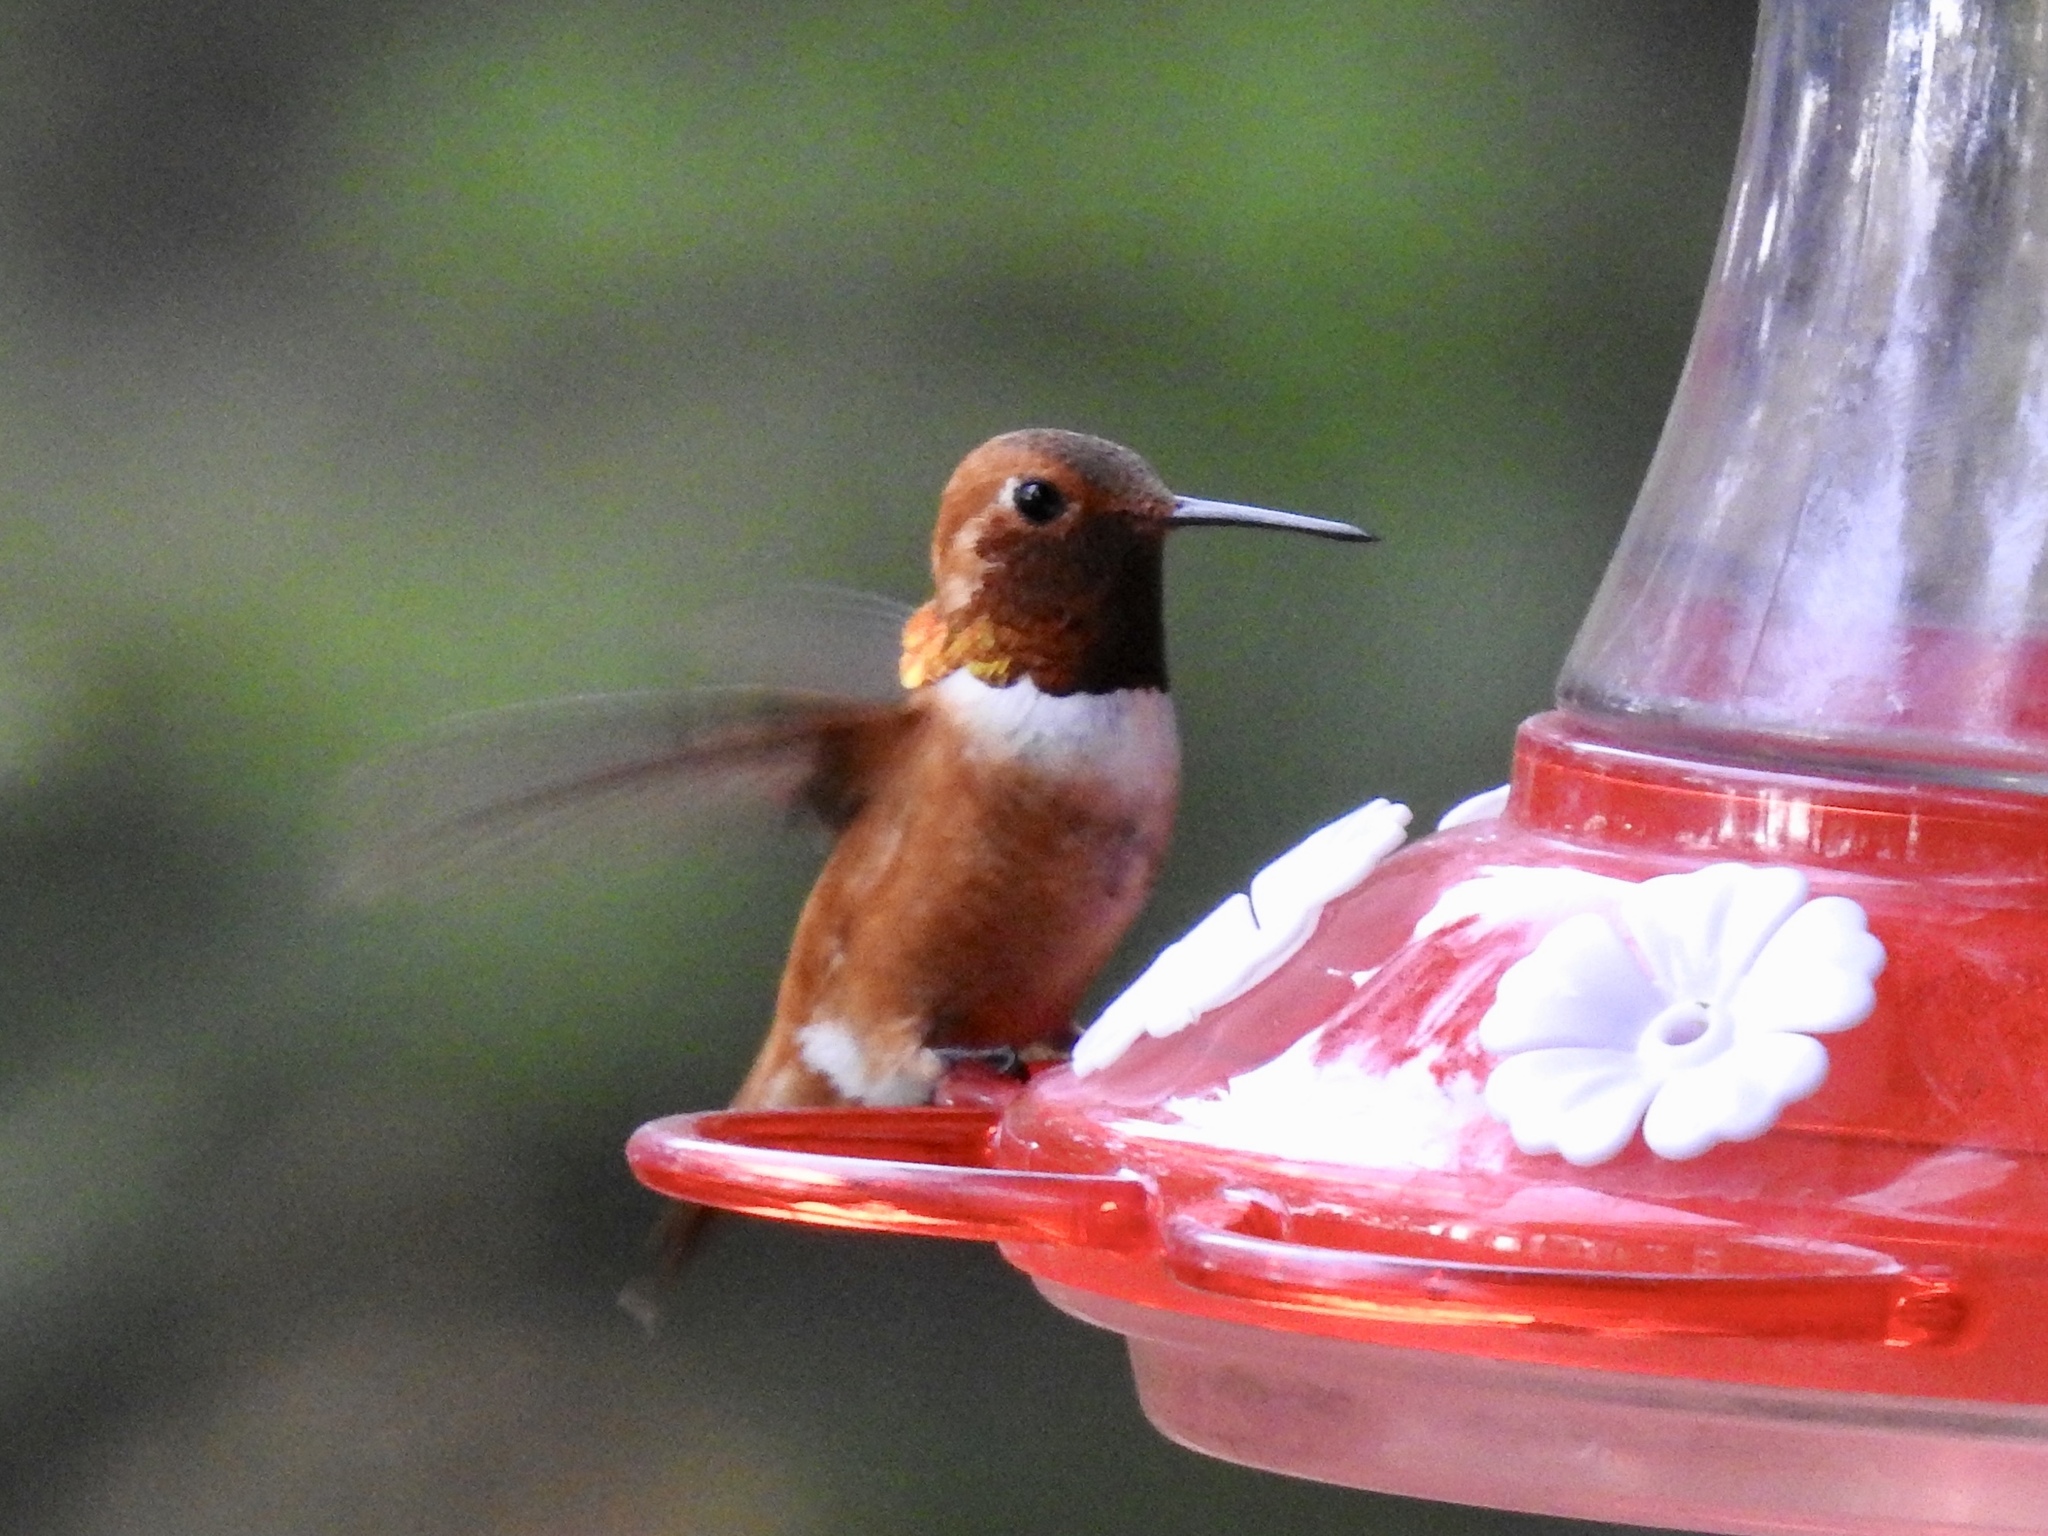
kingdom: Animalia
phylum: Chordata
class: Aves
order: Apodiformes
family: Trochilidae
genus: Selasphorus
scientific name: Selasphorus rufus
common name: Rufous hummingbird
